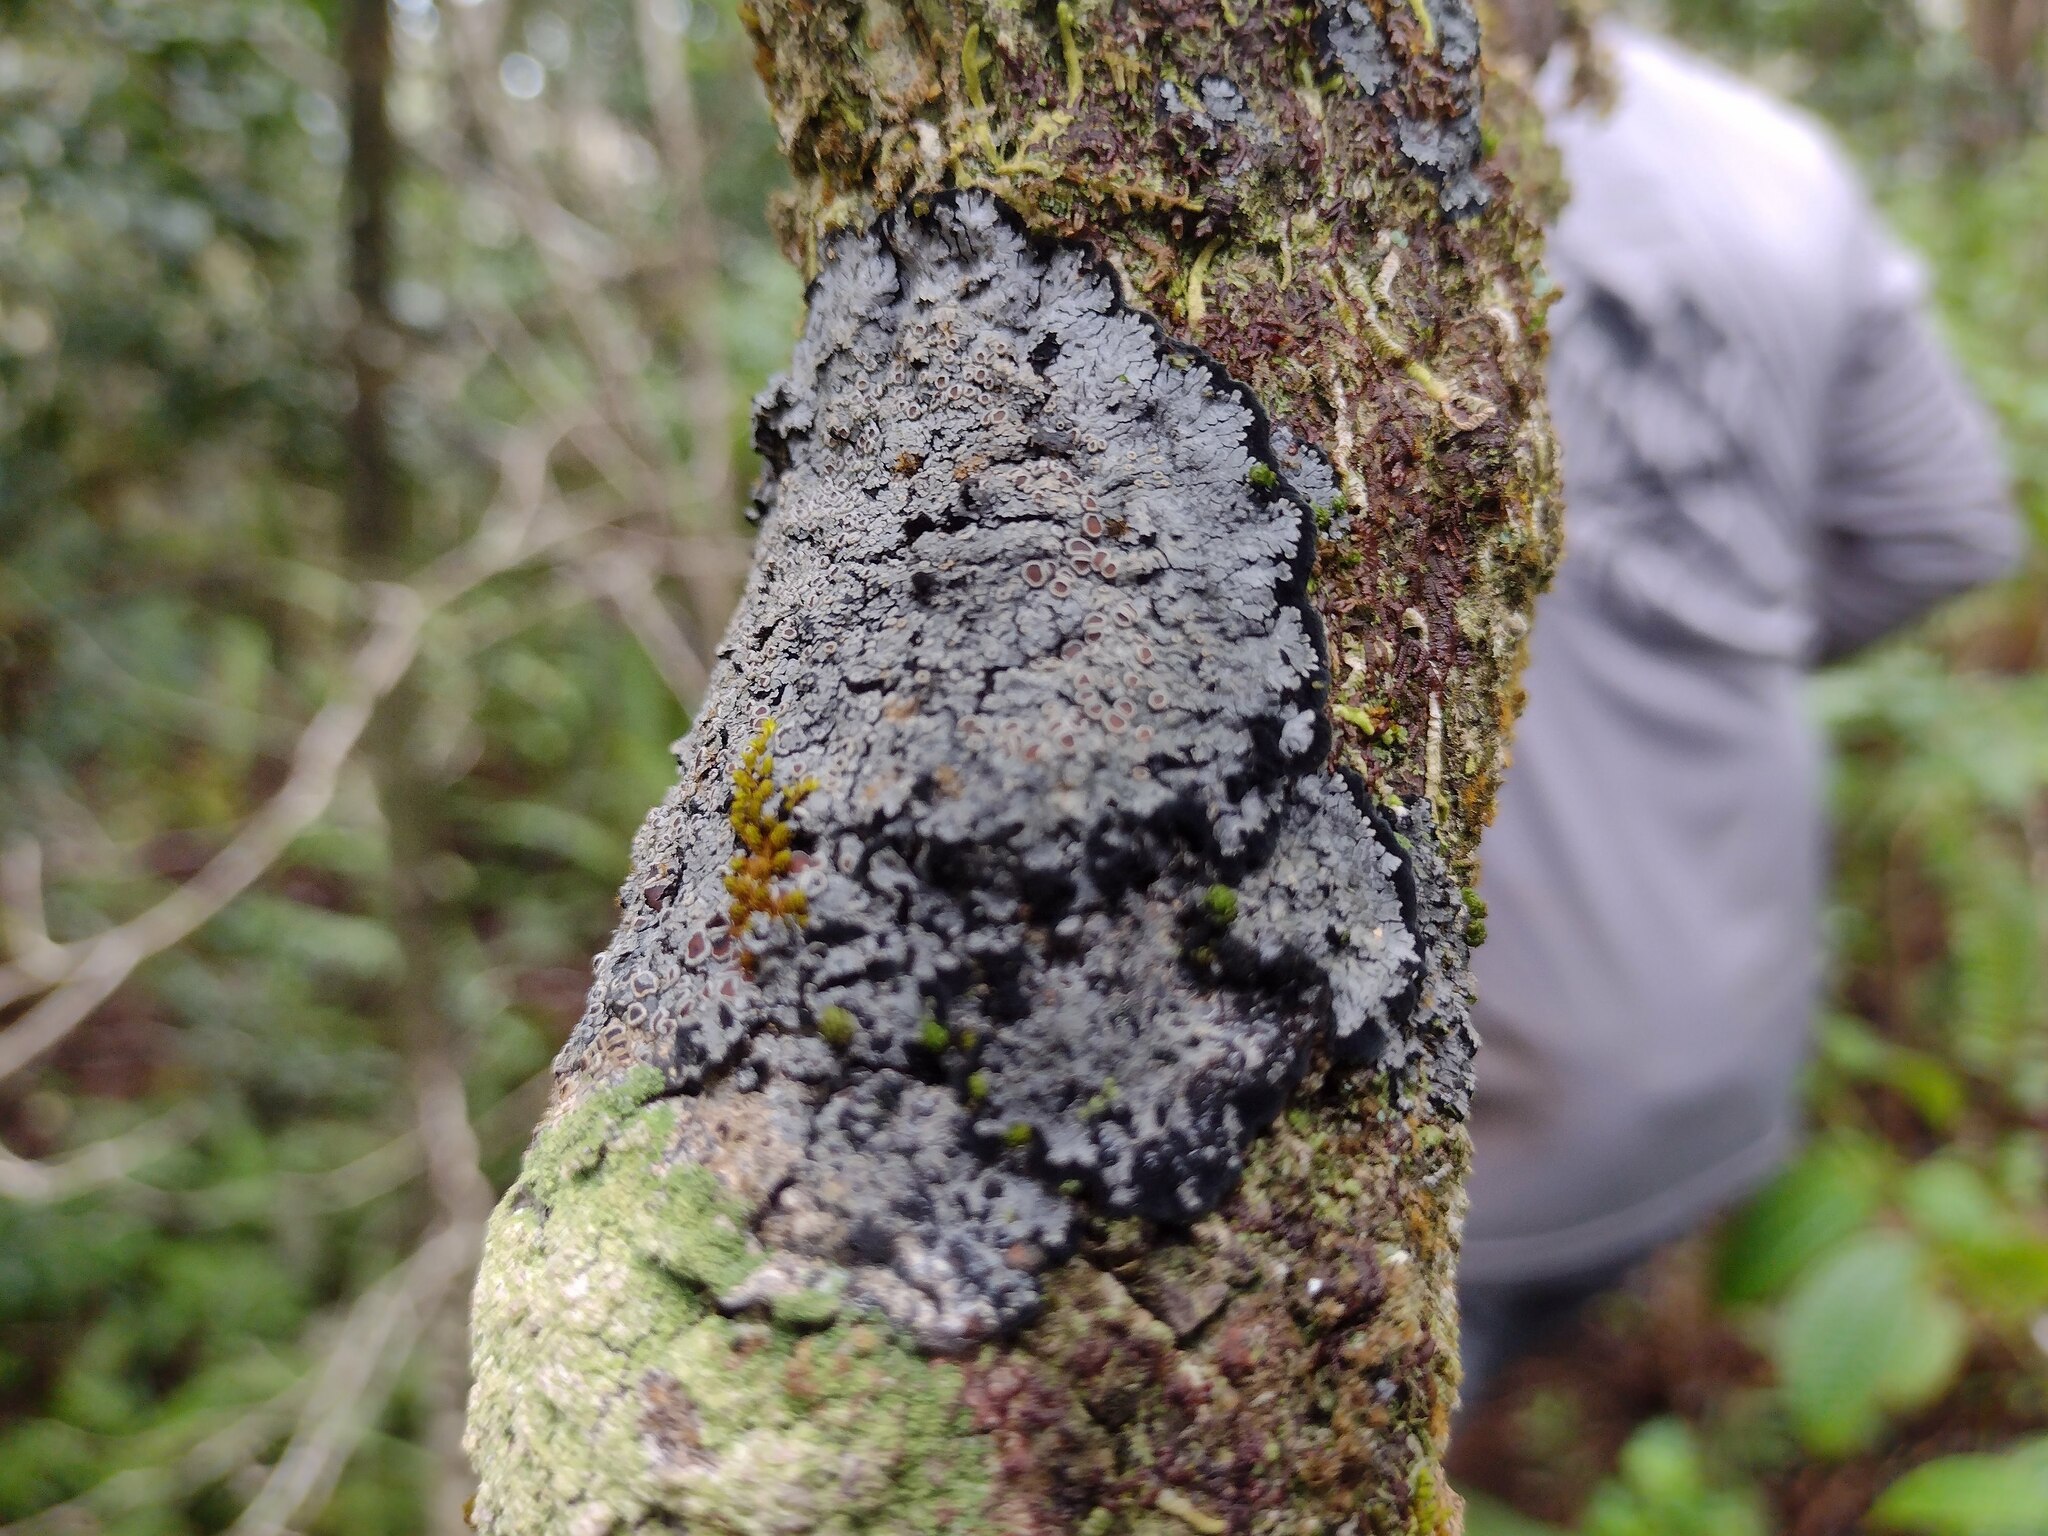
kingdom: Fungi
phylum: Ascomycota
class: Lecanoromycetes
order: Peltigerales
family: Pannariaceae
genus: Lepidocollema
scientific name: Lepidocollema marianum
